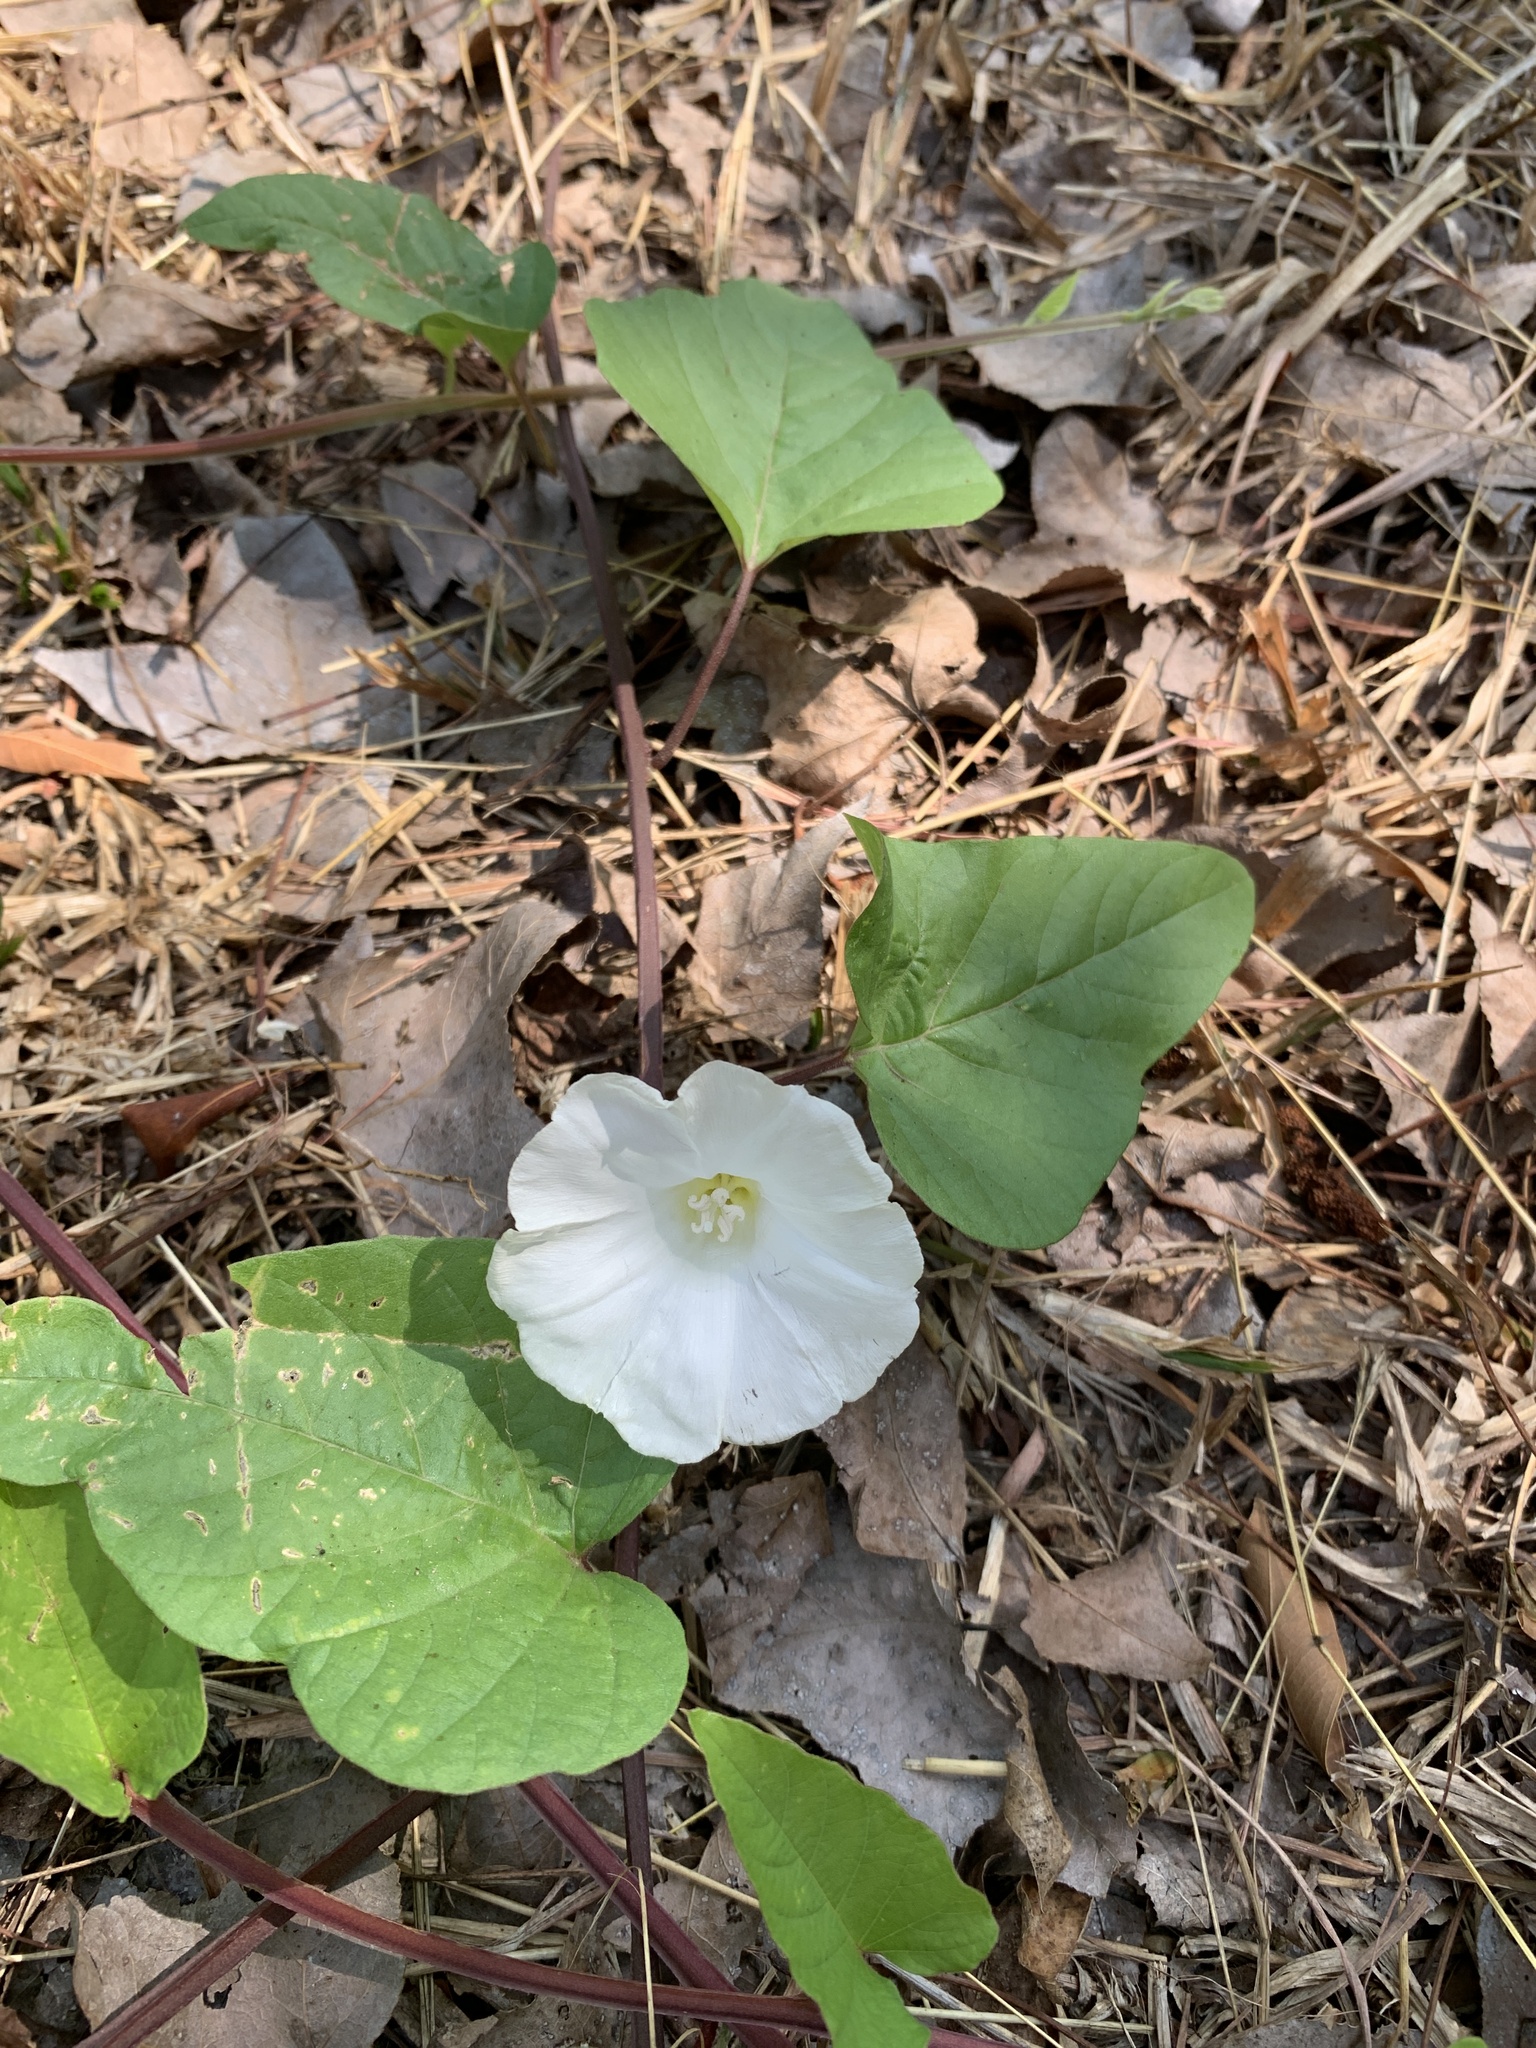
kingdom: Plantae
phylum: Tracheophyta
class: Magnoliopsida
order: Solanales
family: Convolvulaceae
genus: Operculina
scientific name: Operculina turpethum
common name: Transparent wood-rose
